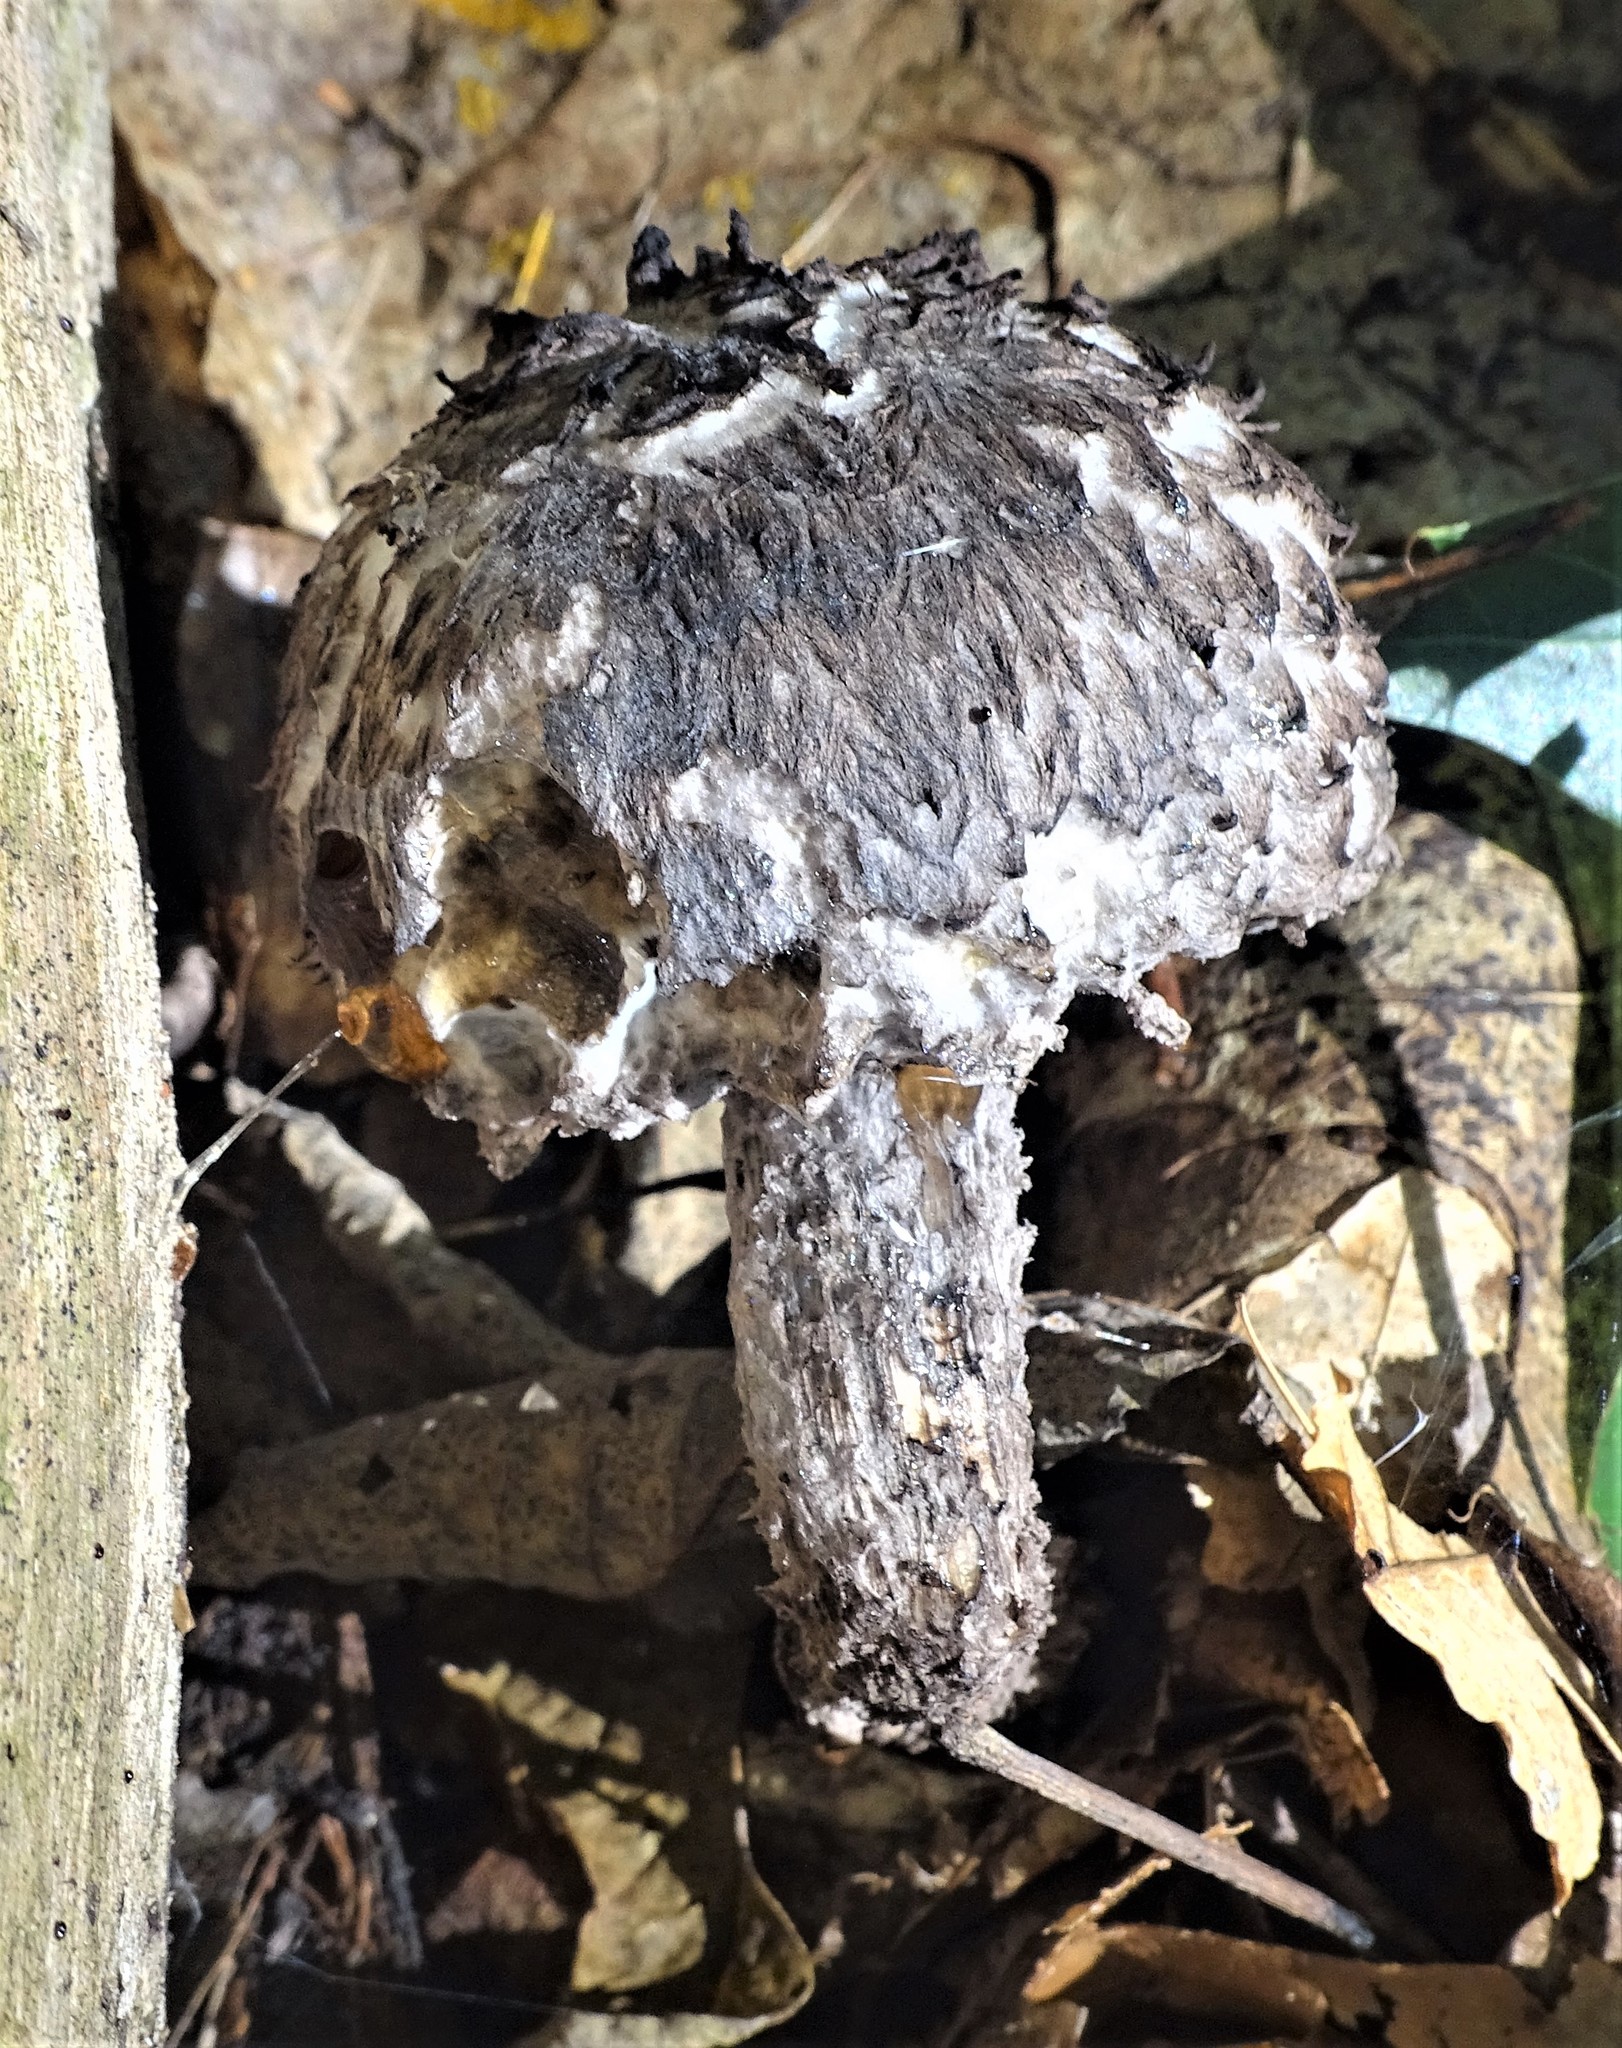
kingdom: Fungi
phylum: Basidiomycota
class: Agaricomycetes
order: Boletales
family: Boletaceae
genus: Strobilomyces
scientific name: Strobilomyces strobilaceus
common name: Old man of the woods
